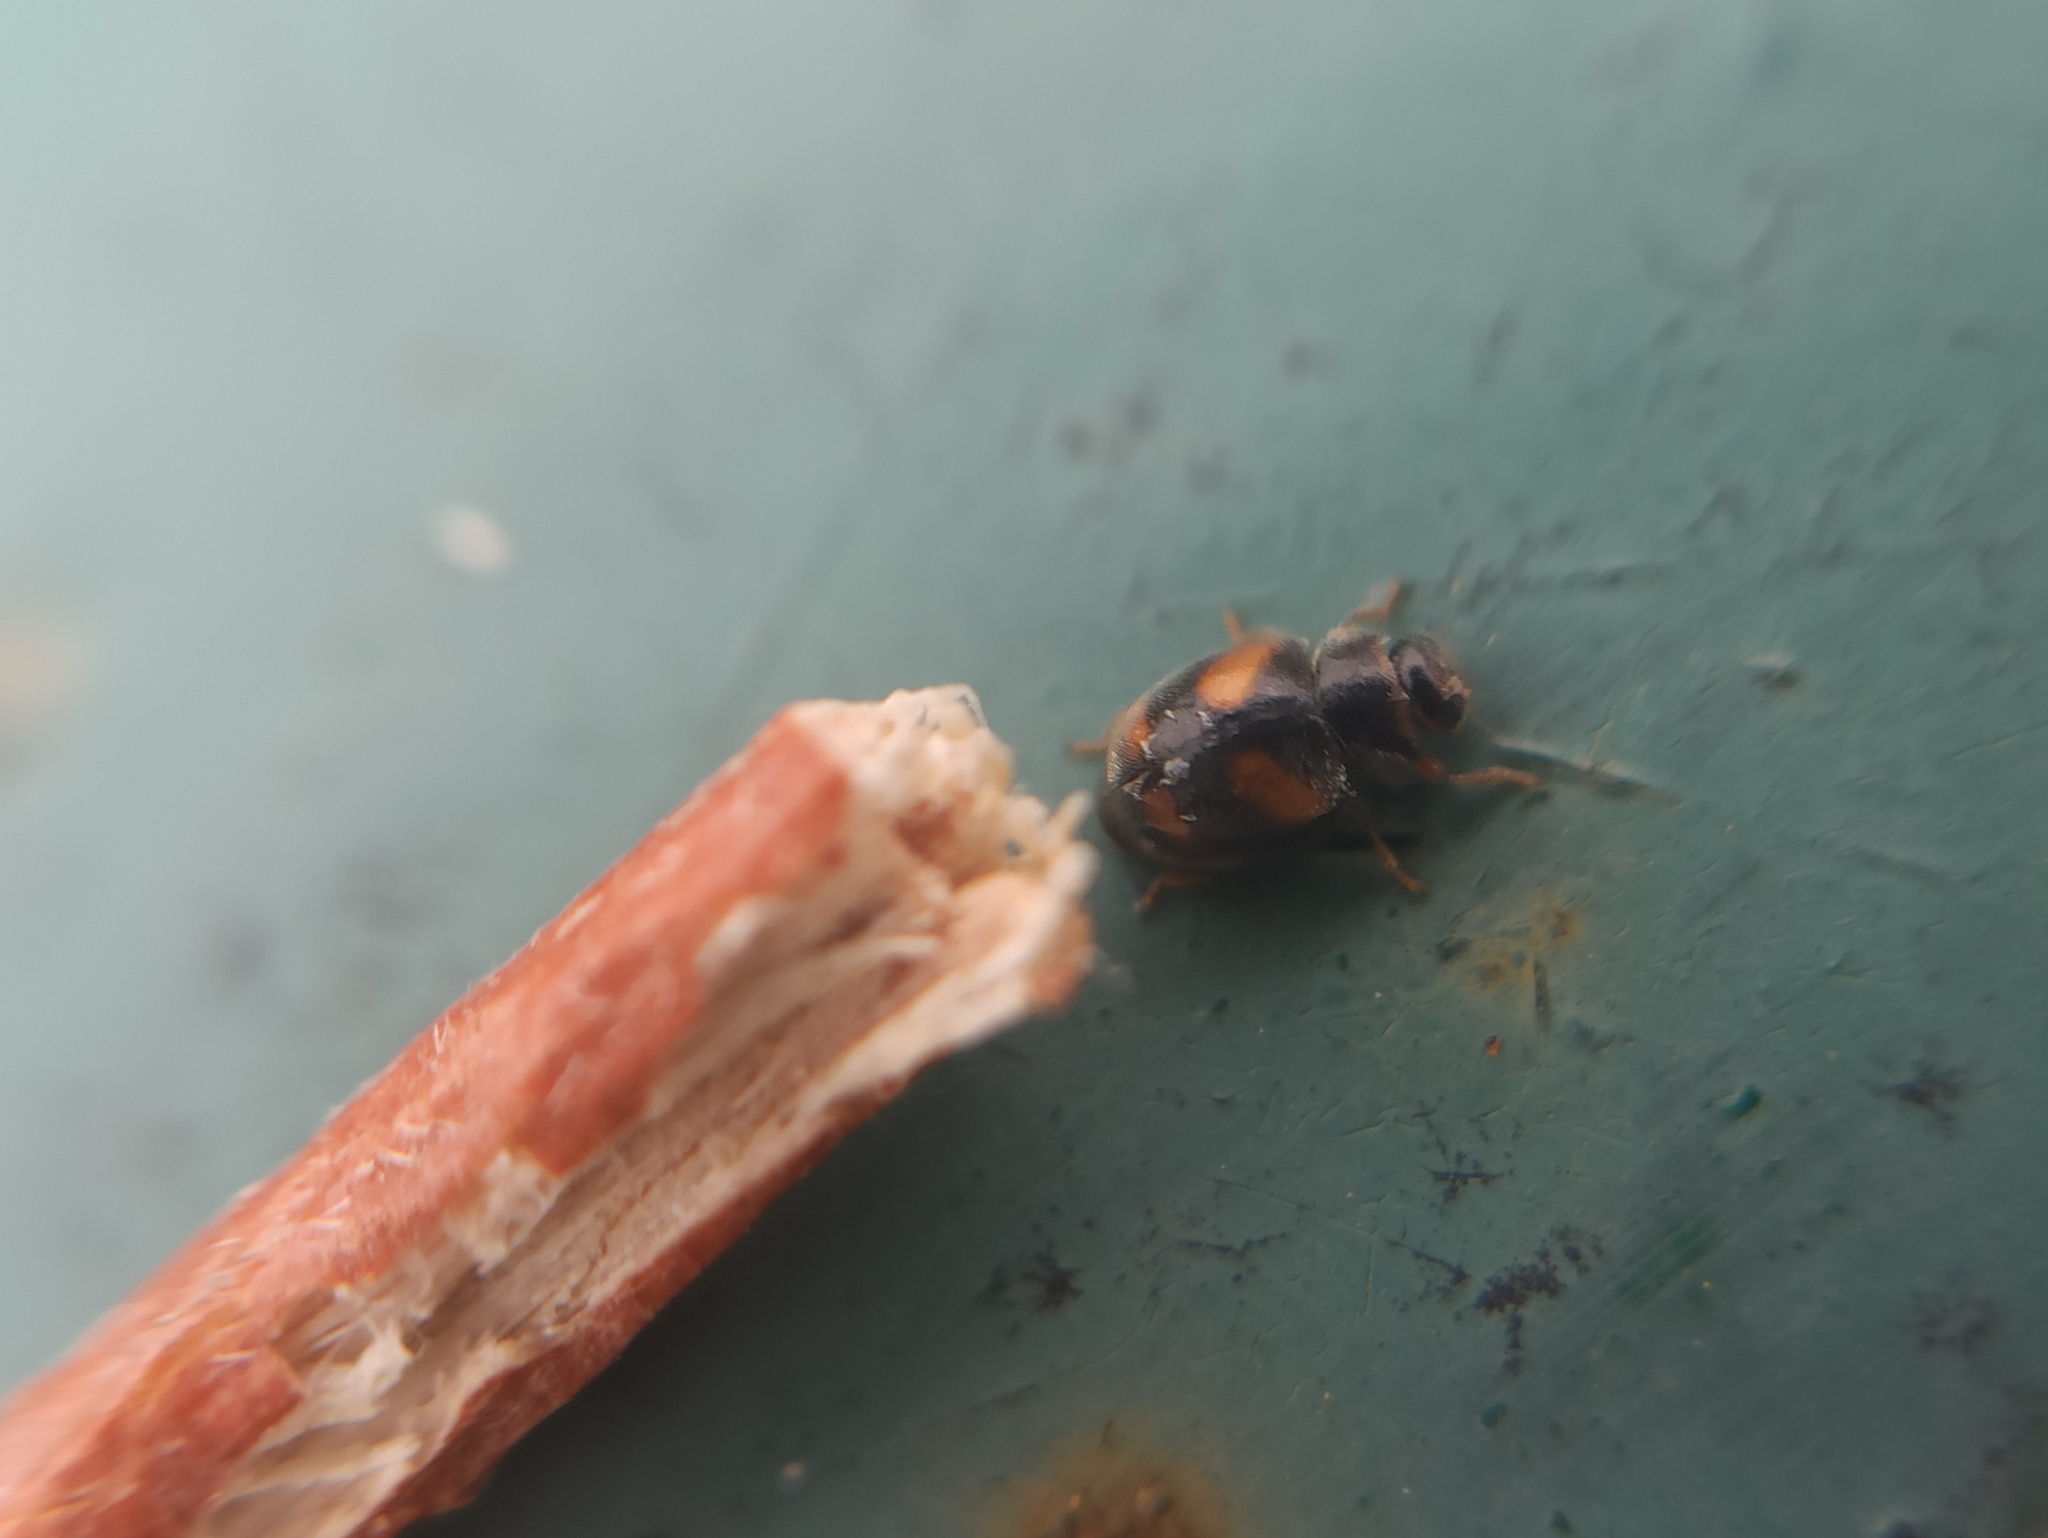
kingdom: Animalia
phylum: Arthropoda
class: Insecta
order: Coleoptera
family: Coccinellidae
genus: Nephus
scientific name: Nephus quadrimaculatus
